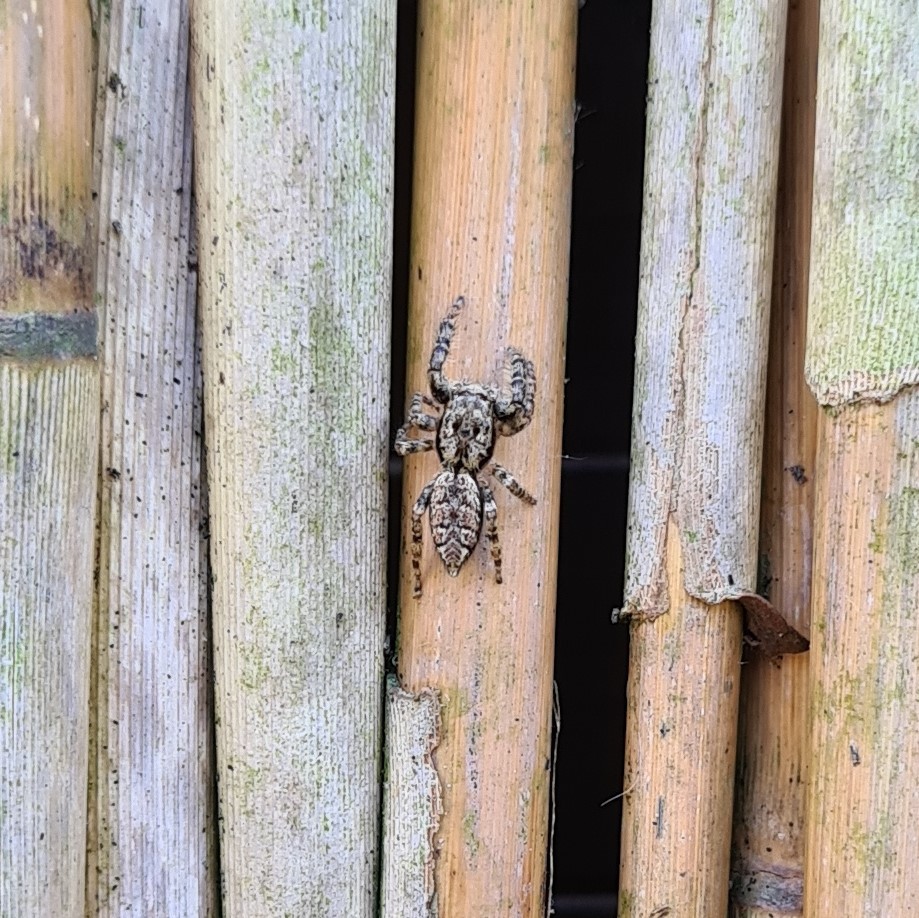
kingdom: Animalia
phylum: Arthropoda
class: Arachnida
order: Araneae
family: Salticidae
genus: Marpissa
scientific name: Marpissa muscosa
